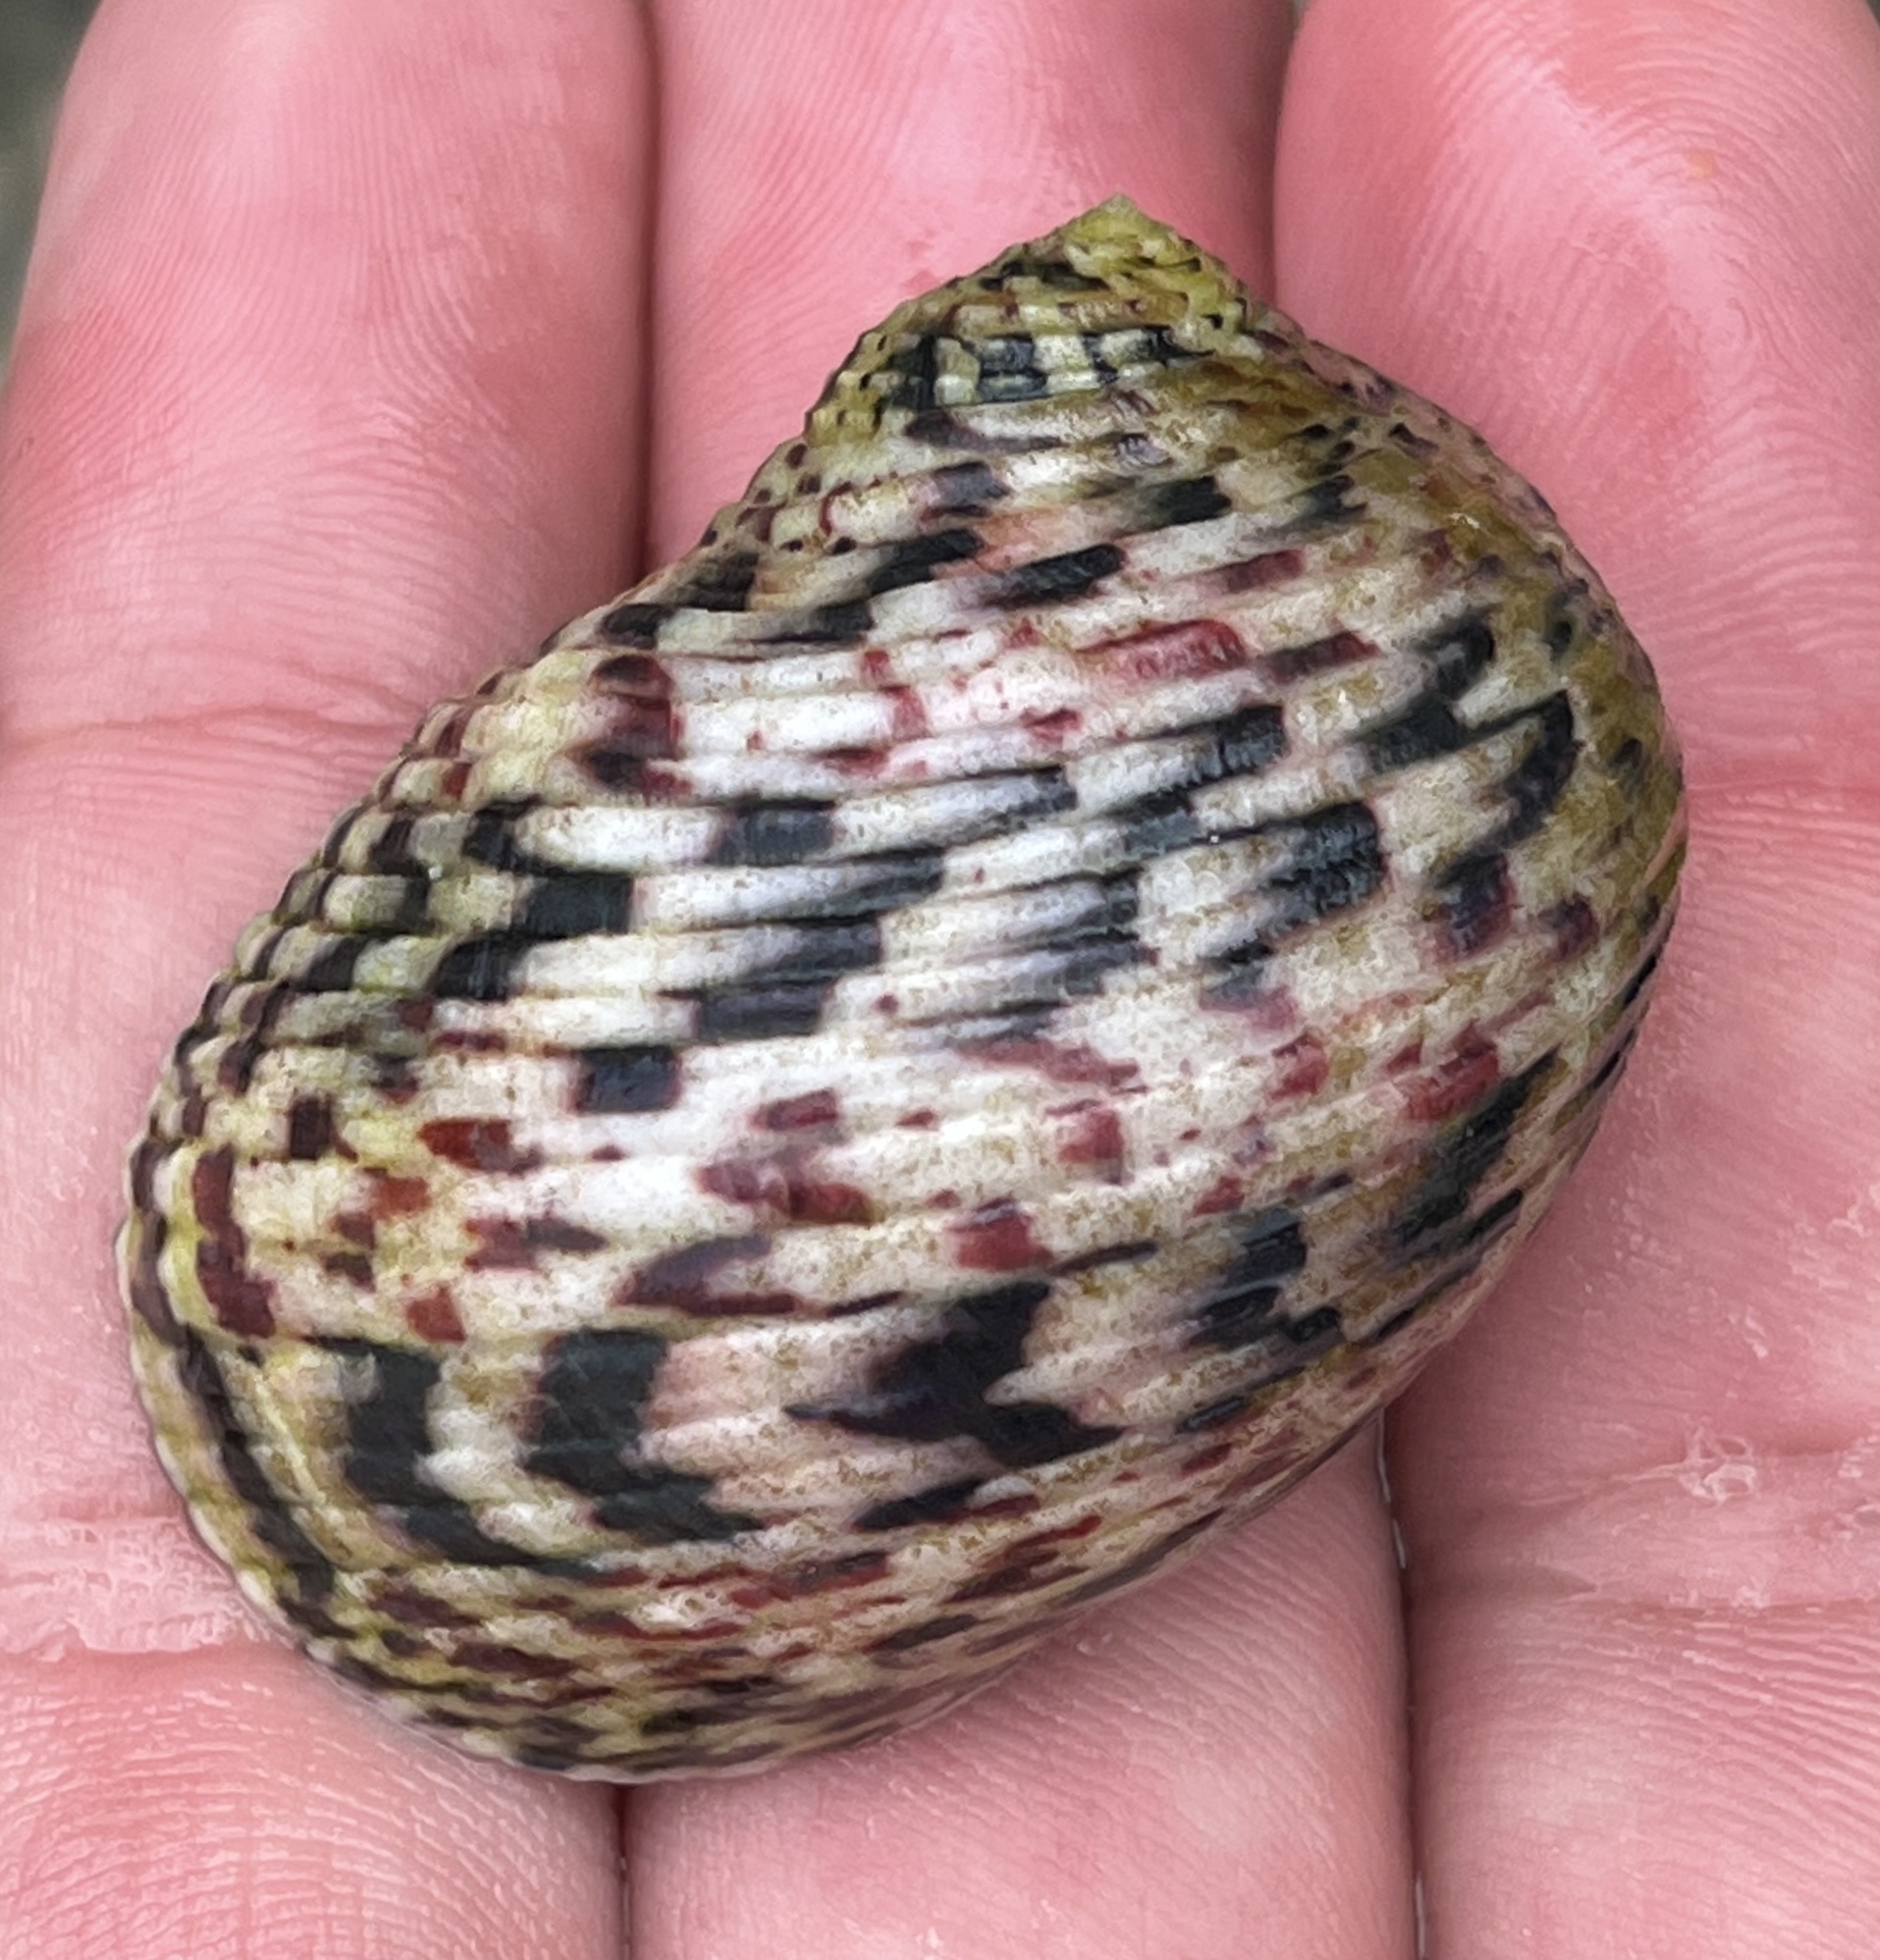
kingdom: Animalia
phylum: Mollusca
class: Gastropoda
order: Cycloneritida
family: Neritidae
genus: Nerita
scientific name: Nerita peloronta
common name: Bleeding tooth
